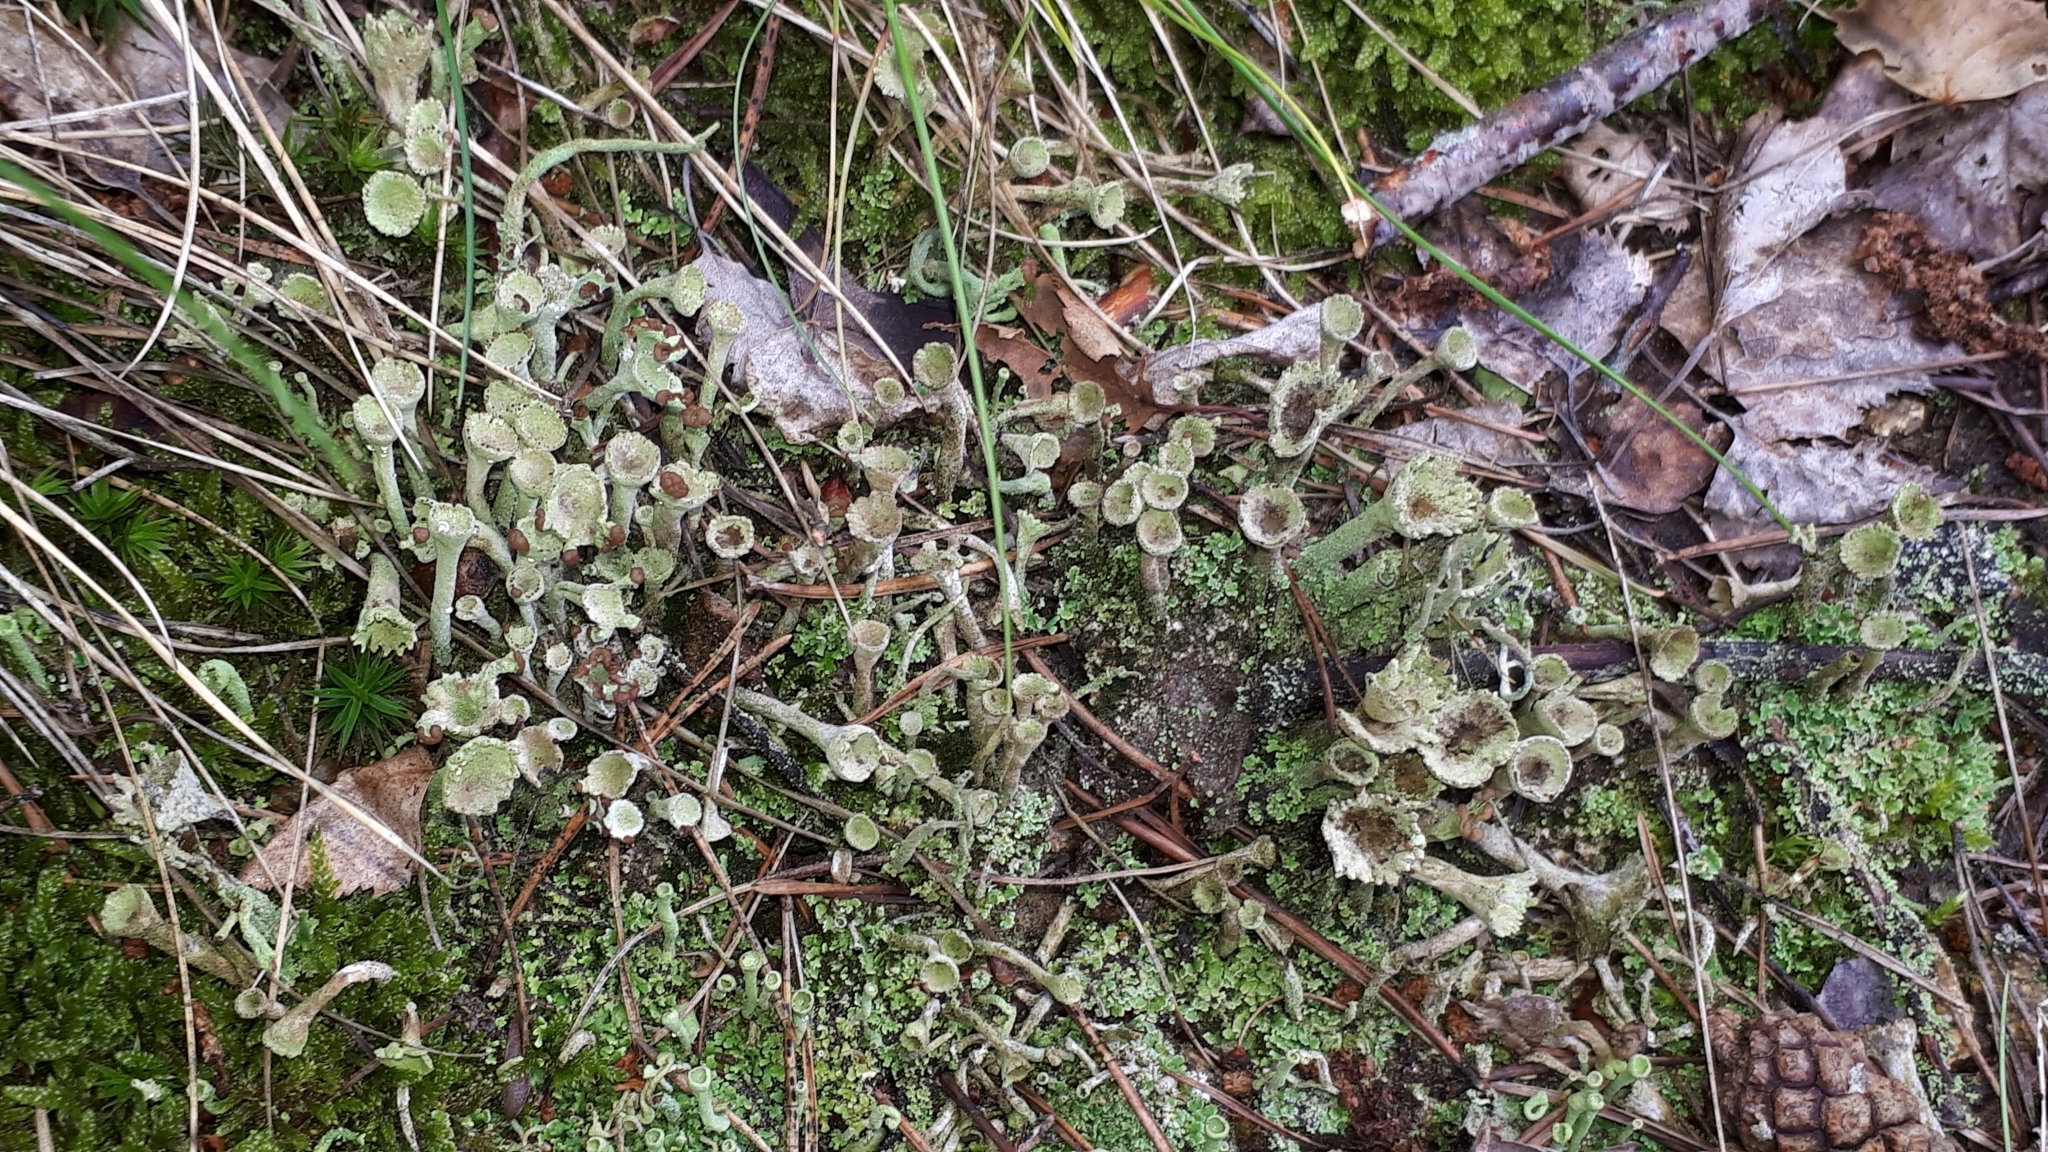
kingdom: Fungi
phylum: Ascomycota
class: Lecanoromycetes
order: Lecanorales
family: Cladoniaceae
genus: Cladonia
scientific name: Cladonia fimbriata
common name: Powdered trumpet lichen
